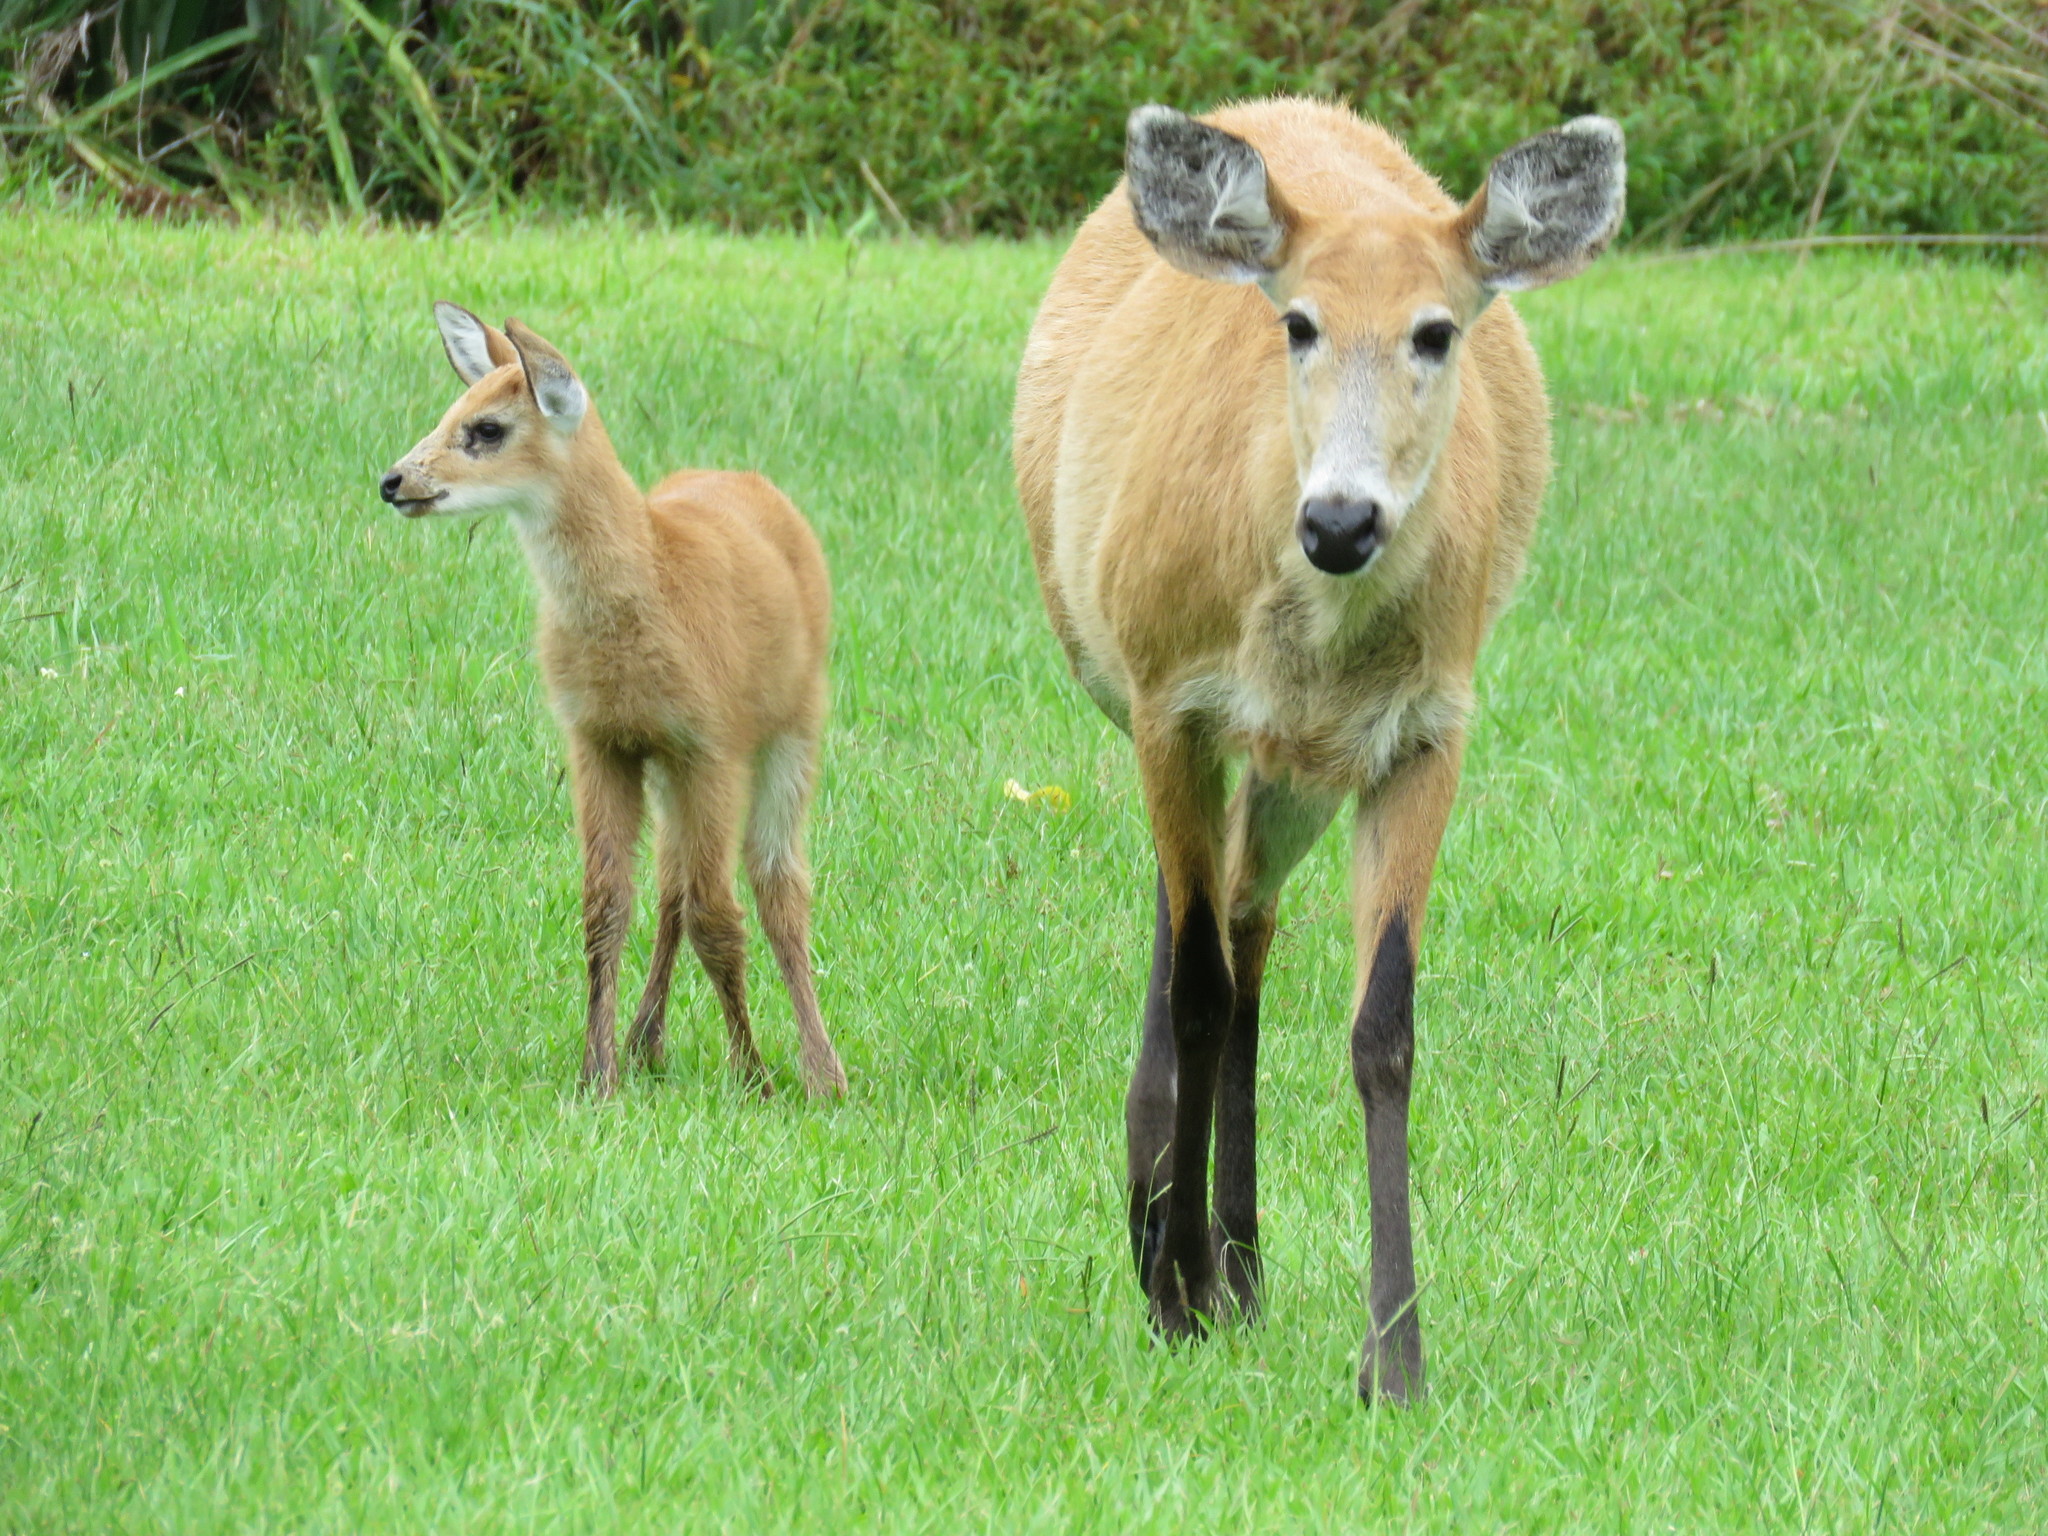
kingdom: Animalia
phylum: Chordata
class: Mammalia
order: Artiodactyla
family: Cervidae
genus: Blastocerus
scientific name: Blastocerus dichotomus
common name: Marsh deer
